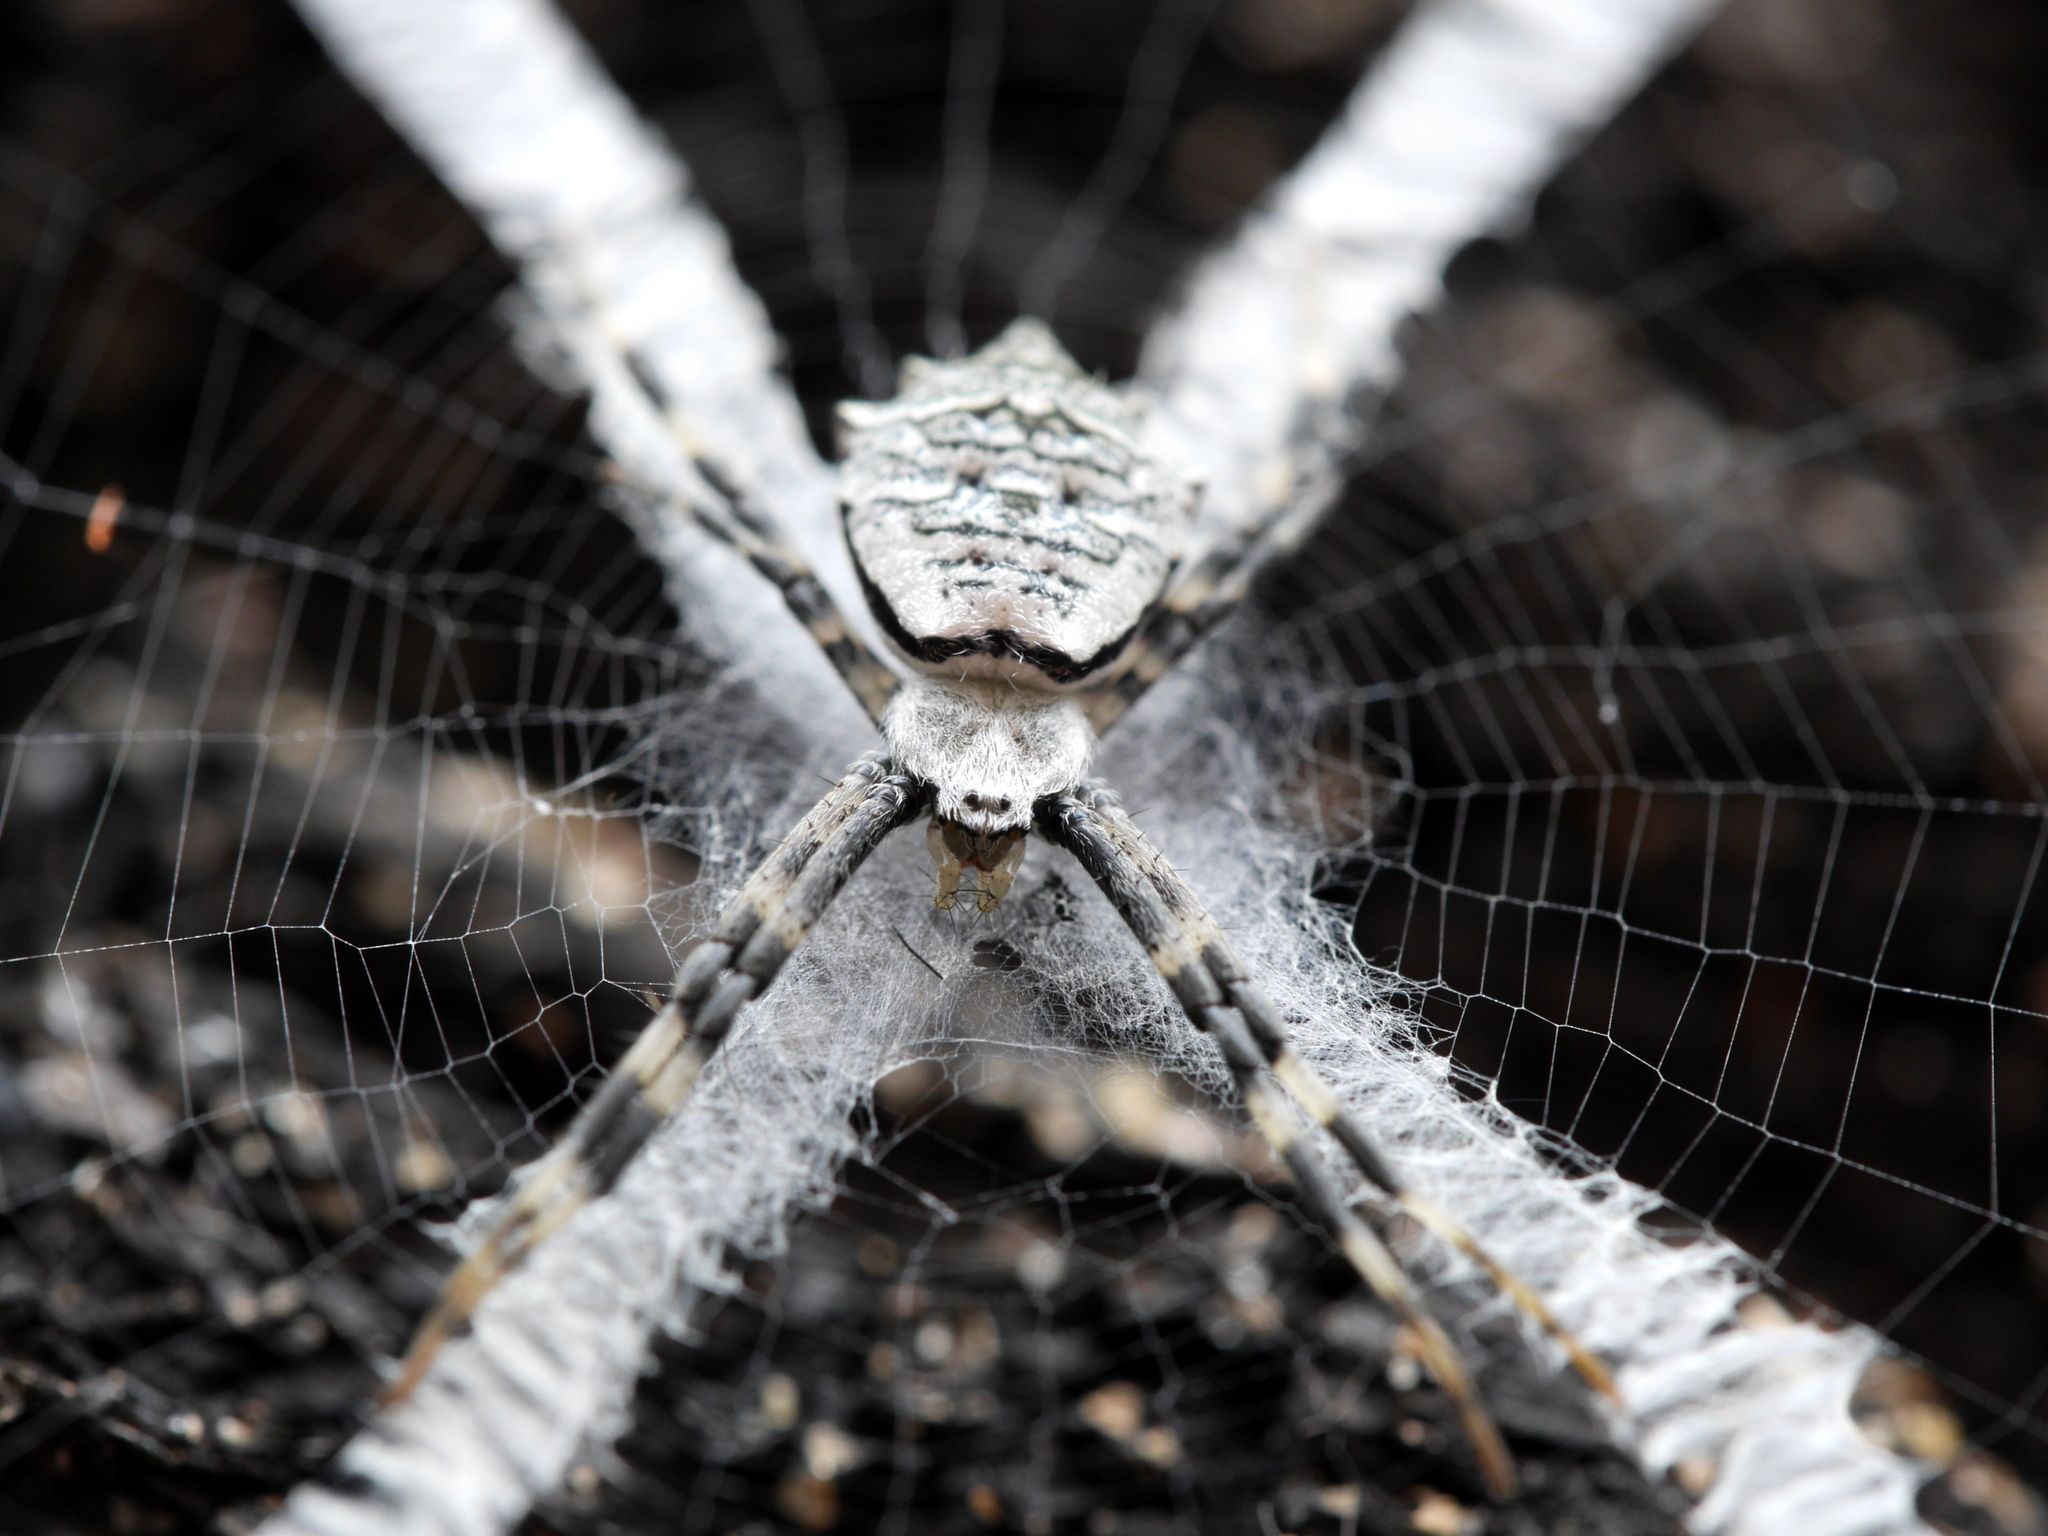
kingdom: Animalia
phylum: Arthropoda
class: Arachnida
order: Araneae
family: Araneidae
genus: Argiope
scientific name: Argiope flavipalpis
